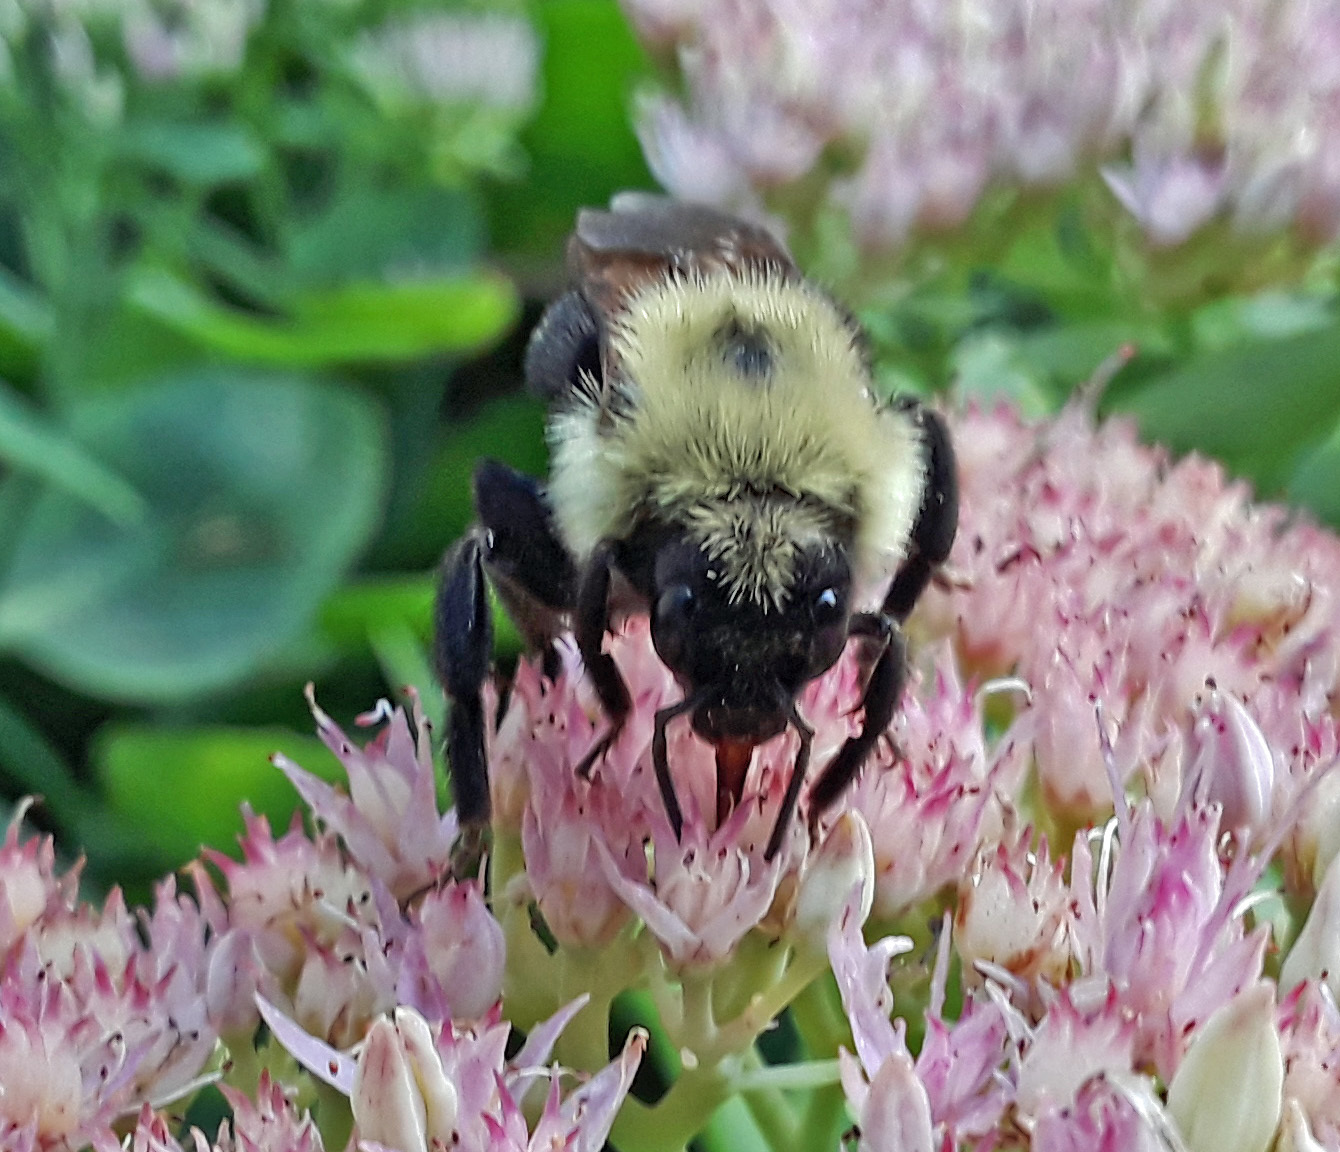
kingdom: Animalia
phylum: Arthropoda
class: Insecta
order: Hymenoptera
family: Apidae
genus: Bombus
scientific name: Bombus citrinus
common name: Lemon cuckoo bumble bee
